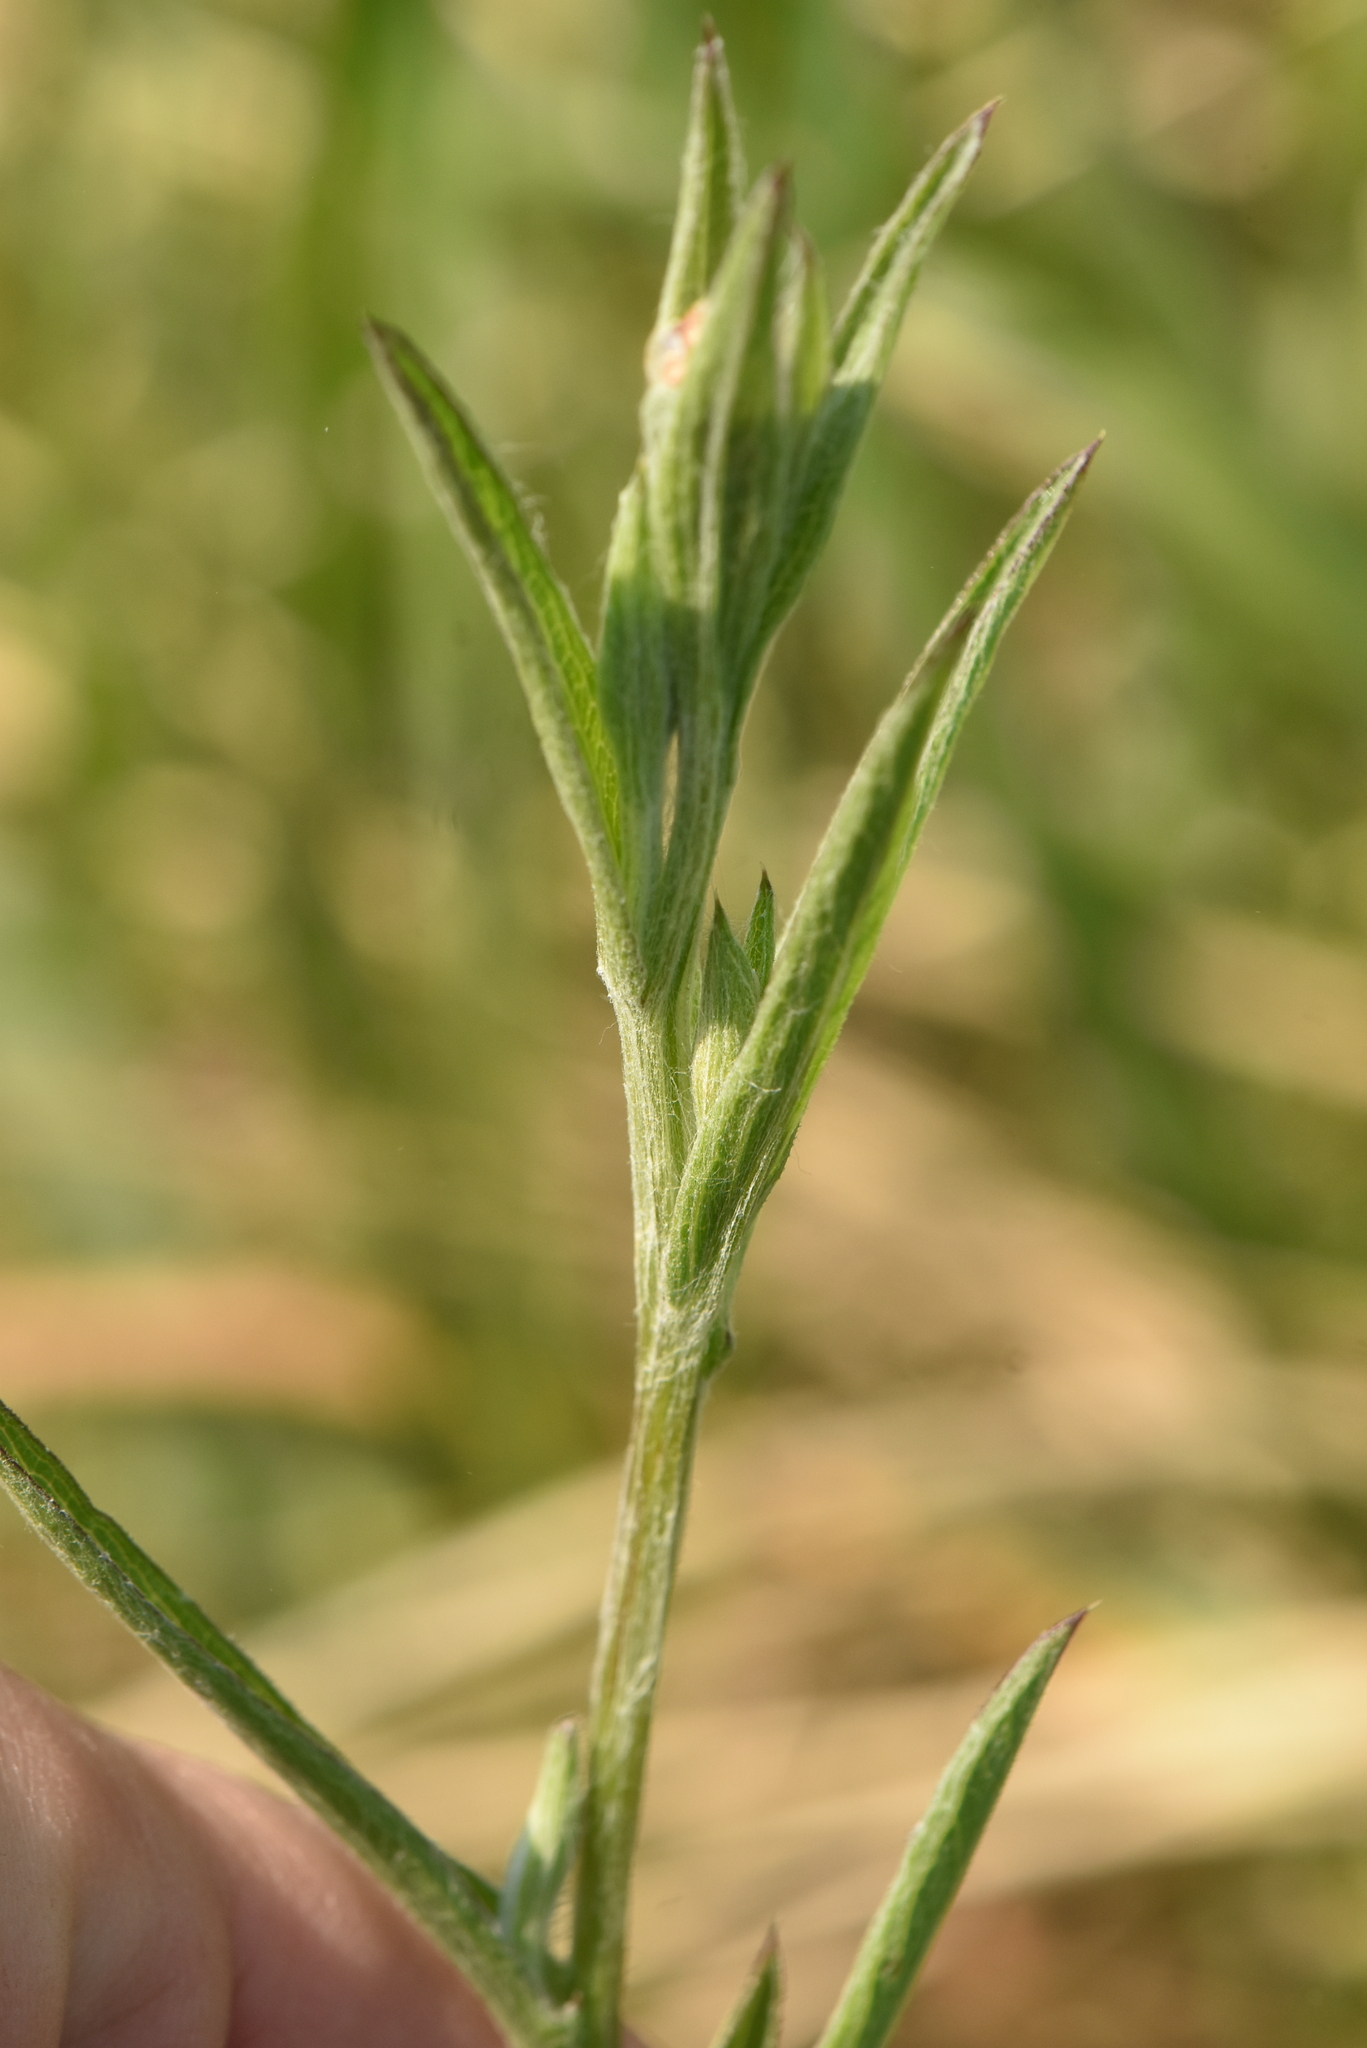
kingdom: Plantae
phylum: Tracheophyta
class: Magnoliopsida
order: Asterales
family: Asteraceae
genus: Centaurea
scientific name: Centaurea jacea
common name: Brown knapweed
